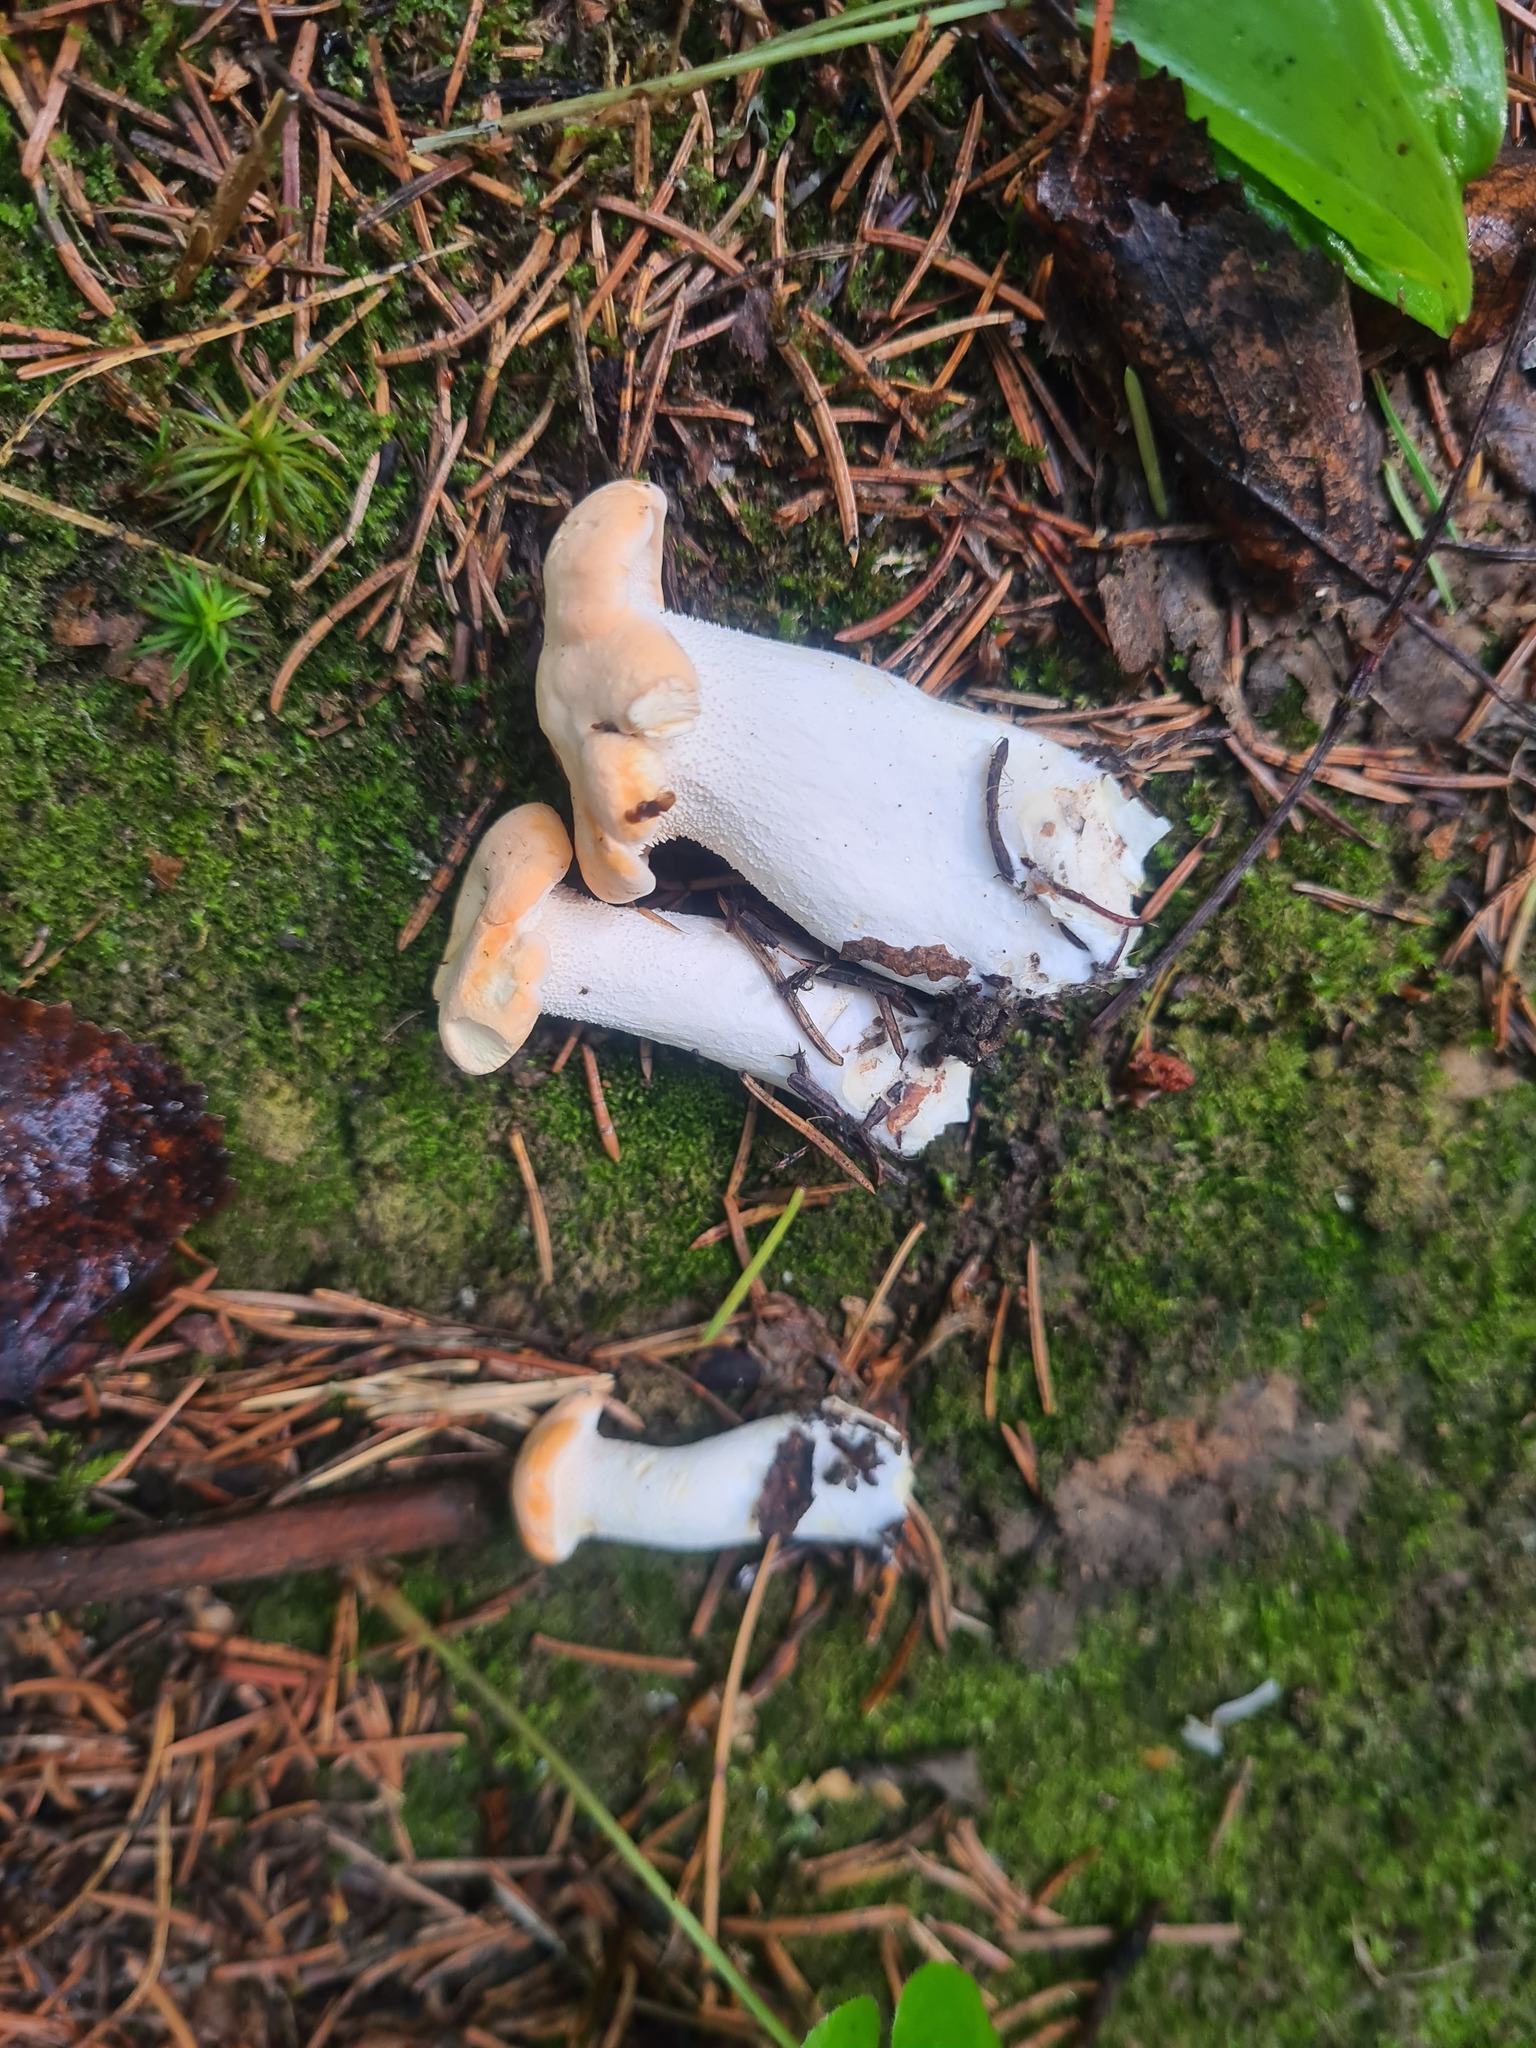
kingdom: Fungi
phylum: Basidiomycota
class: Agaricomycetes
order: Cantharellales
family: Hydnaceae
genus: Hydnum
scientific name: Hydnum repandum
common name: Wood hedgehog
